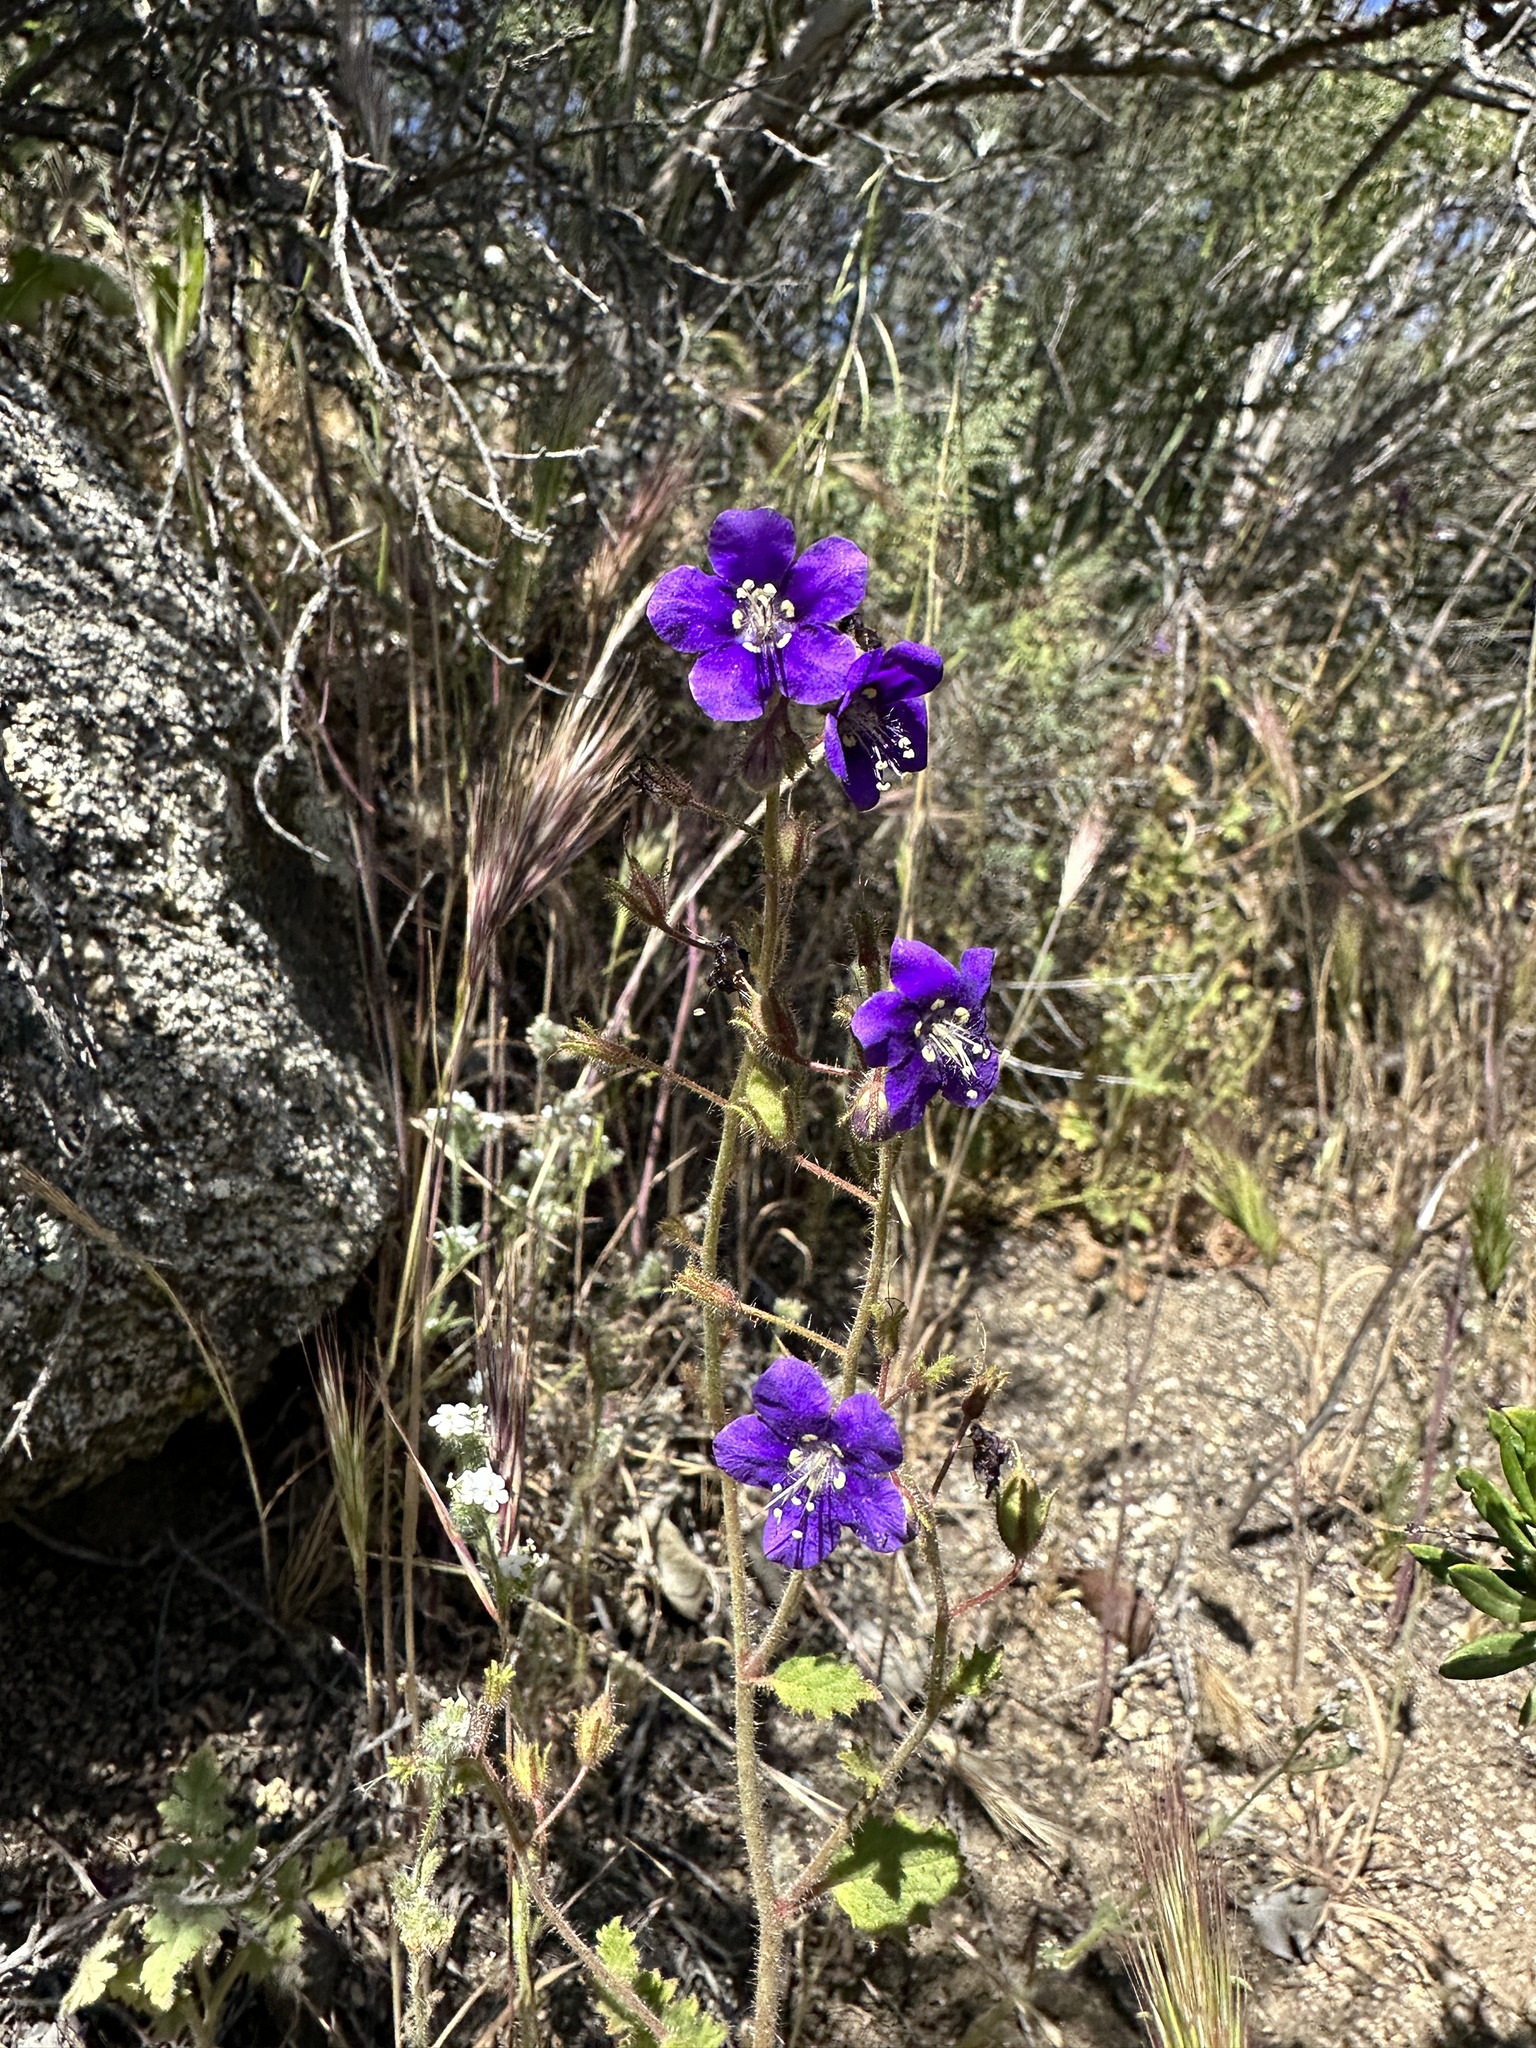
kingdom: Plantae
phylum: Tracheophyta
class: Magnoliopsida
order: Boraginales
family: Hydrophyllaceae
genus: Phacelia
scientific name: Phacelia parryi
